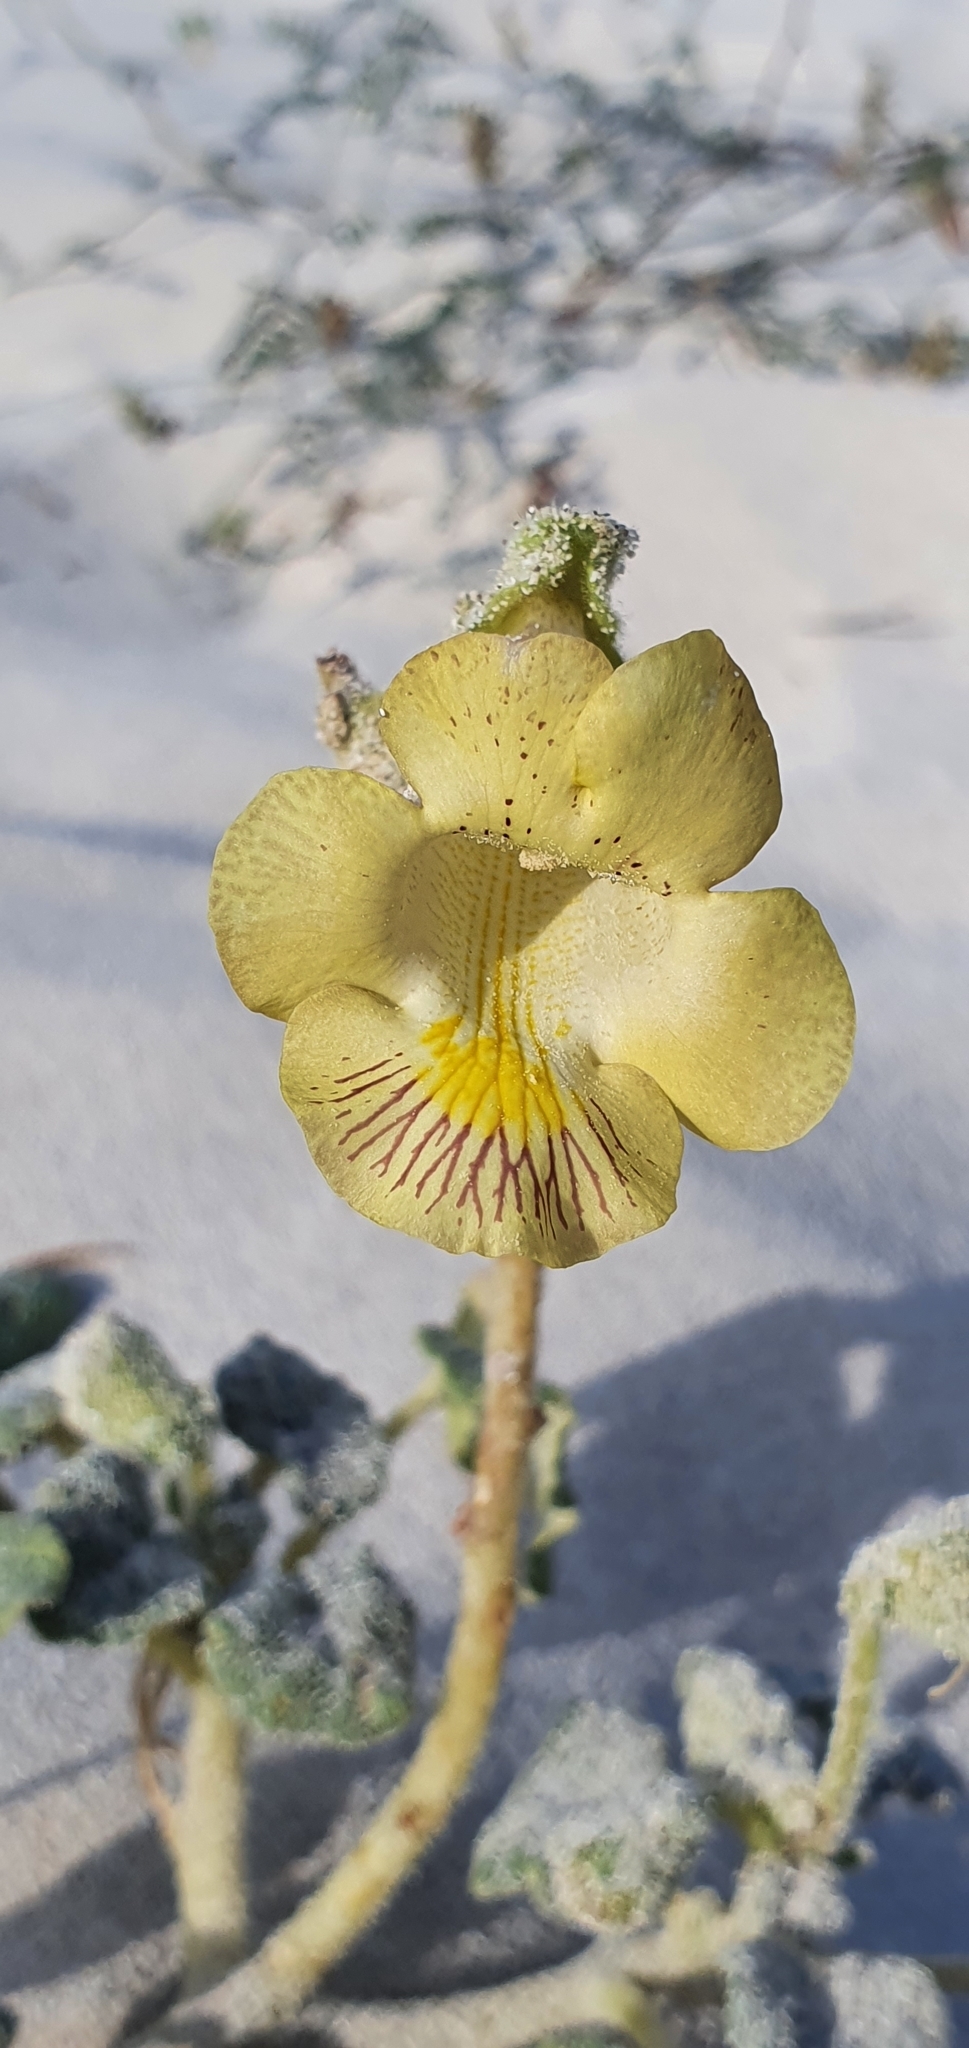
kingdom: Plantae
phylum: Tracheophyta
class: Magnoliopsida
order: Lamiales
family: Martyniaceae
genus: Proboscidea
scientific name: Proboscidea althaeifolia
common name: Desert unicorn-plant
